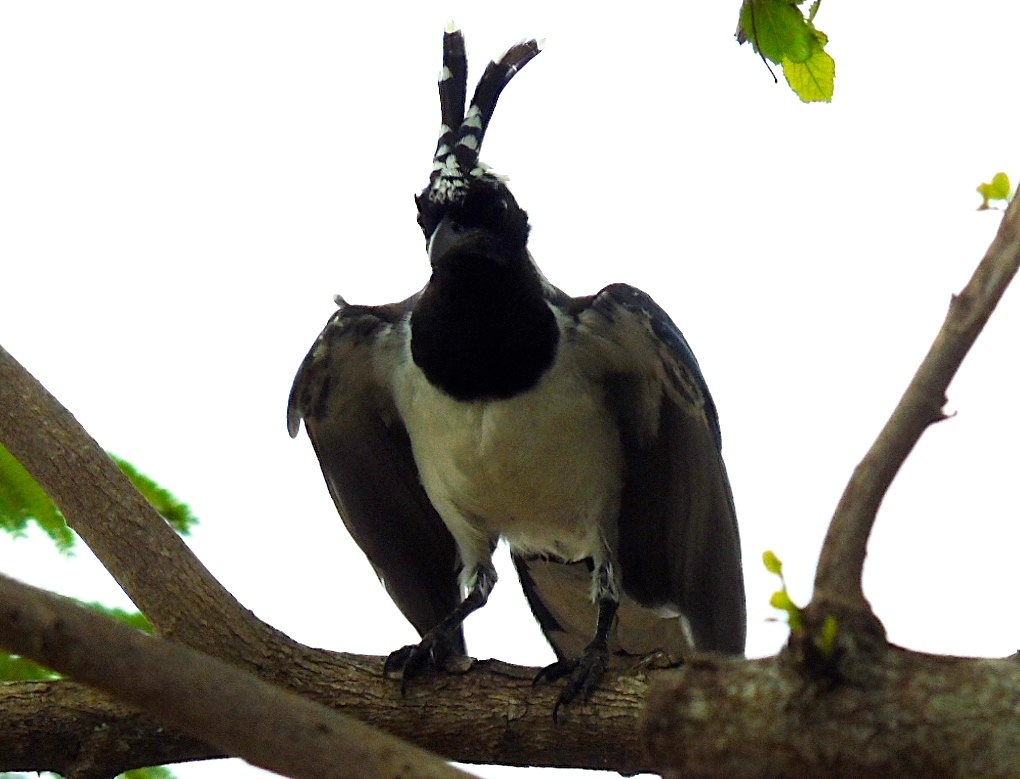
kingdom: Animalia
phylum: Chordata
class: Aves
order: Passeriformes
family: Corvidae
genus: Calocitta
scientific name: Calocitta colliei
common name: Black-throated magpie-jay
